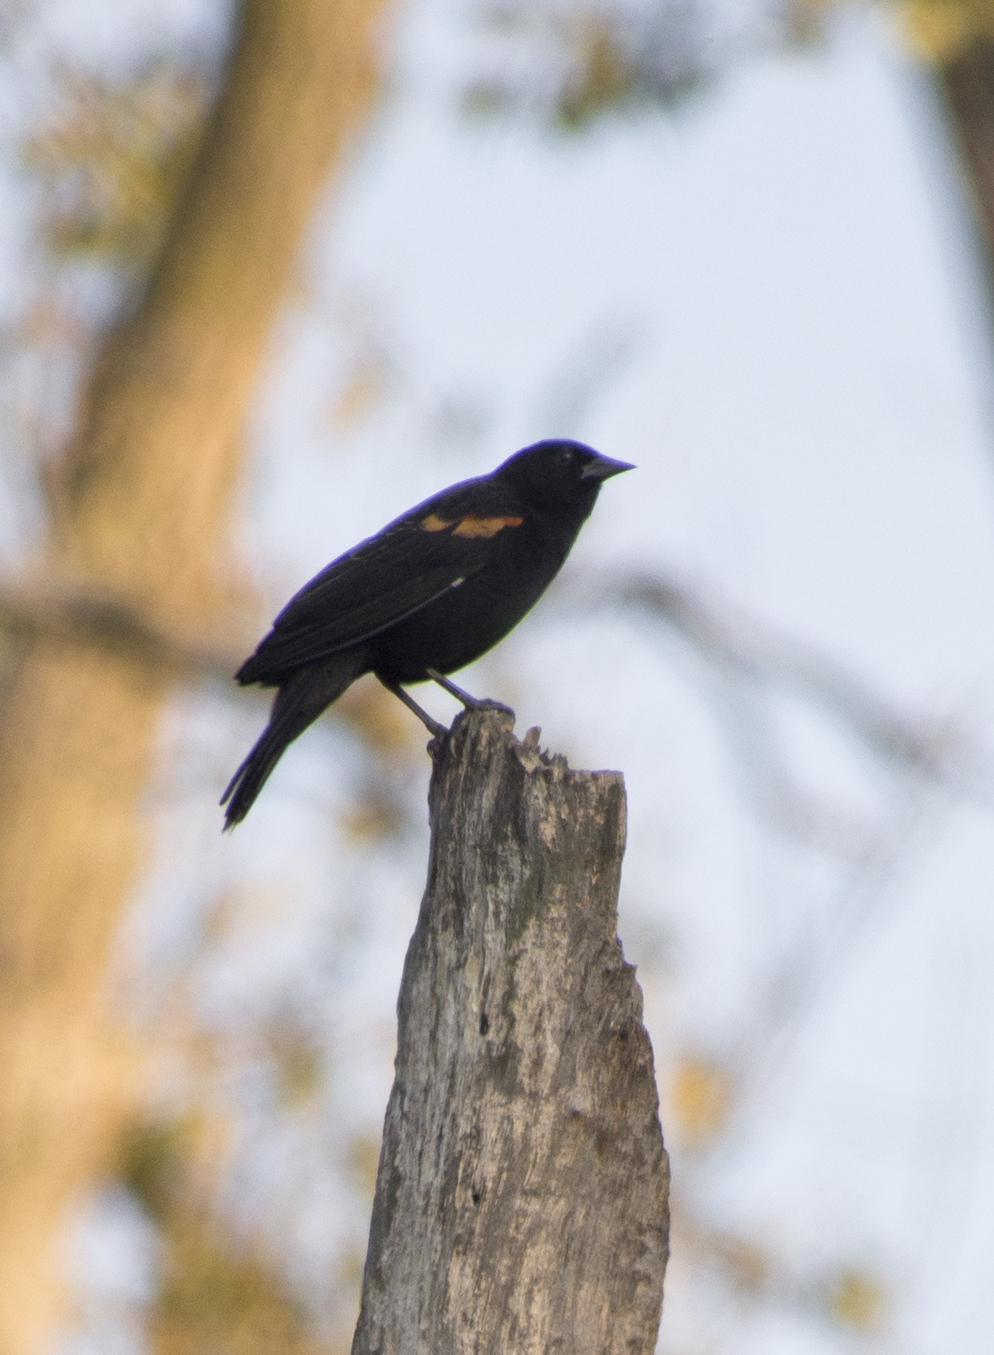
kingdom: Animalia
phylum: Chordata
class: Aves
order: Passeriformes
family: Icteridae
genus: Agelaius
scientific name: Agelaius phoeniceus
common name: Red-winged blackbird
